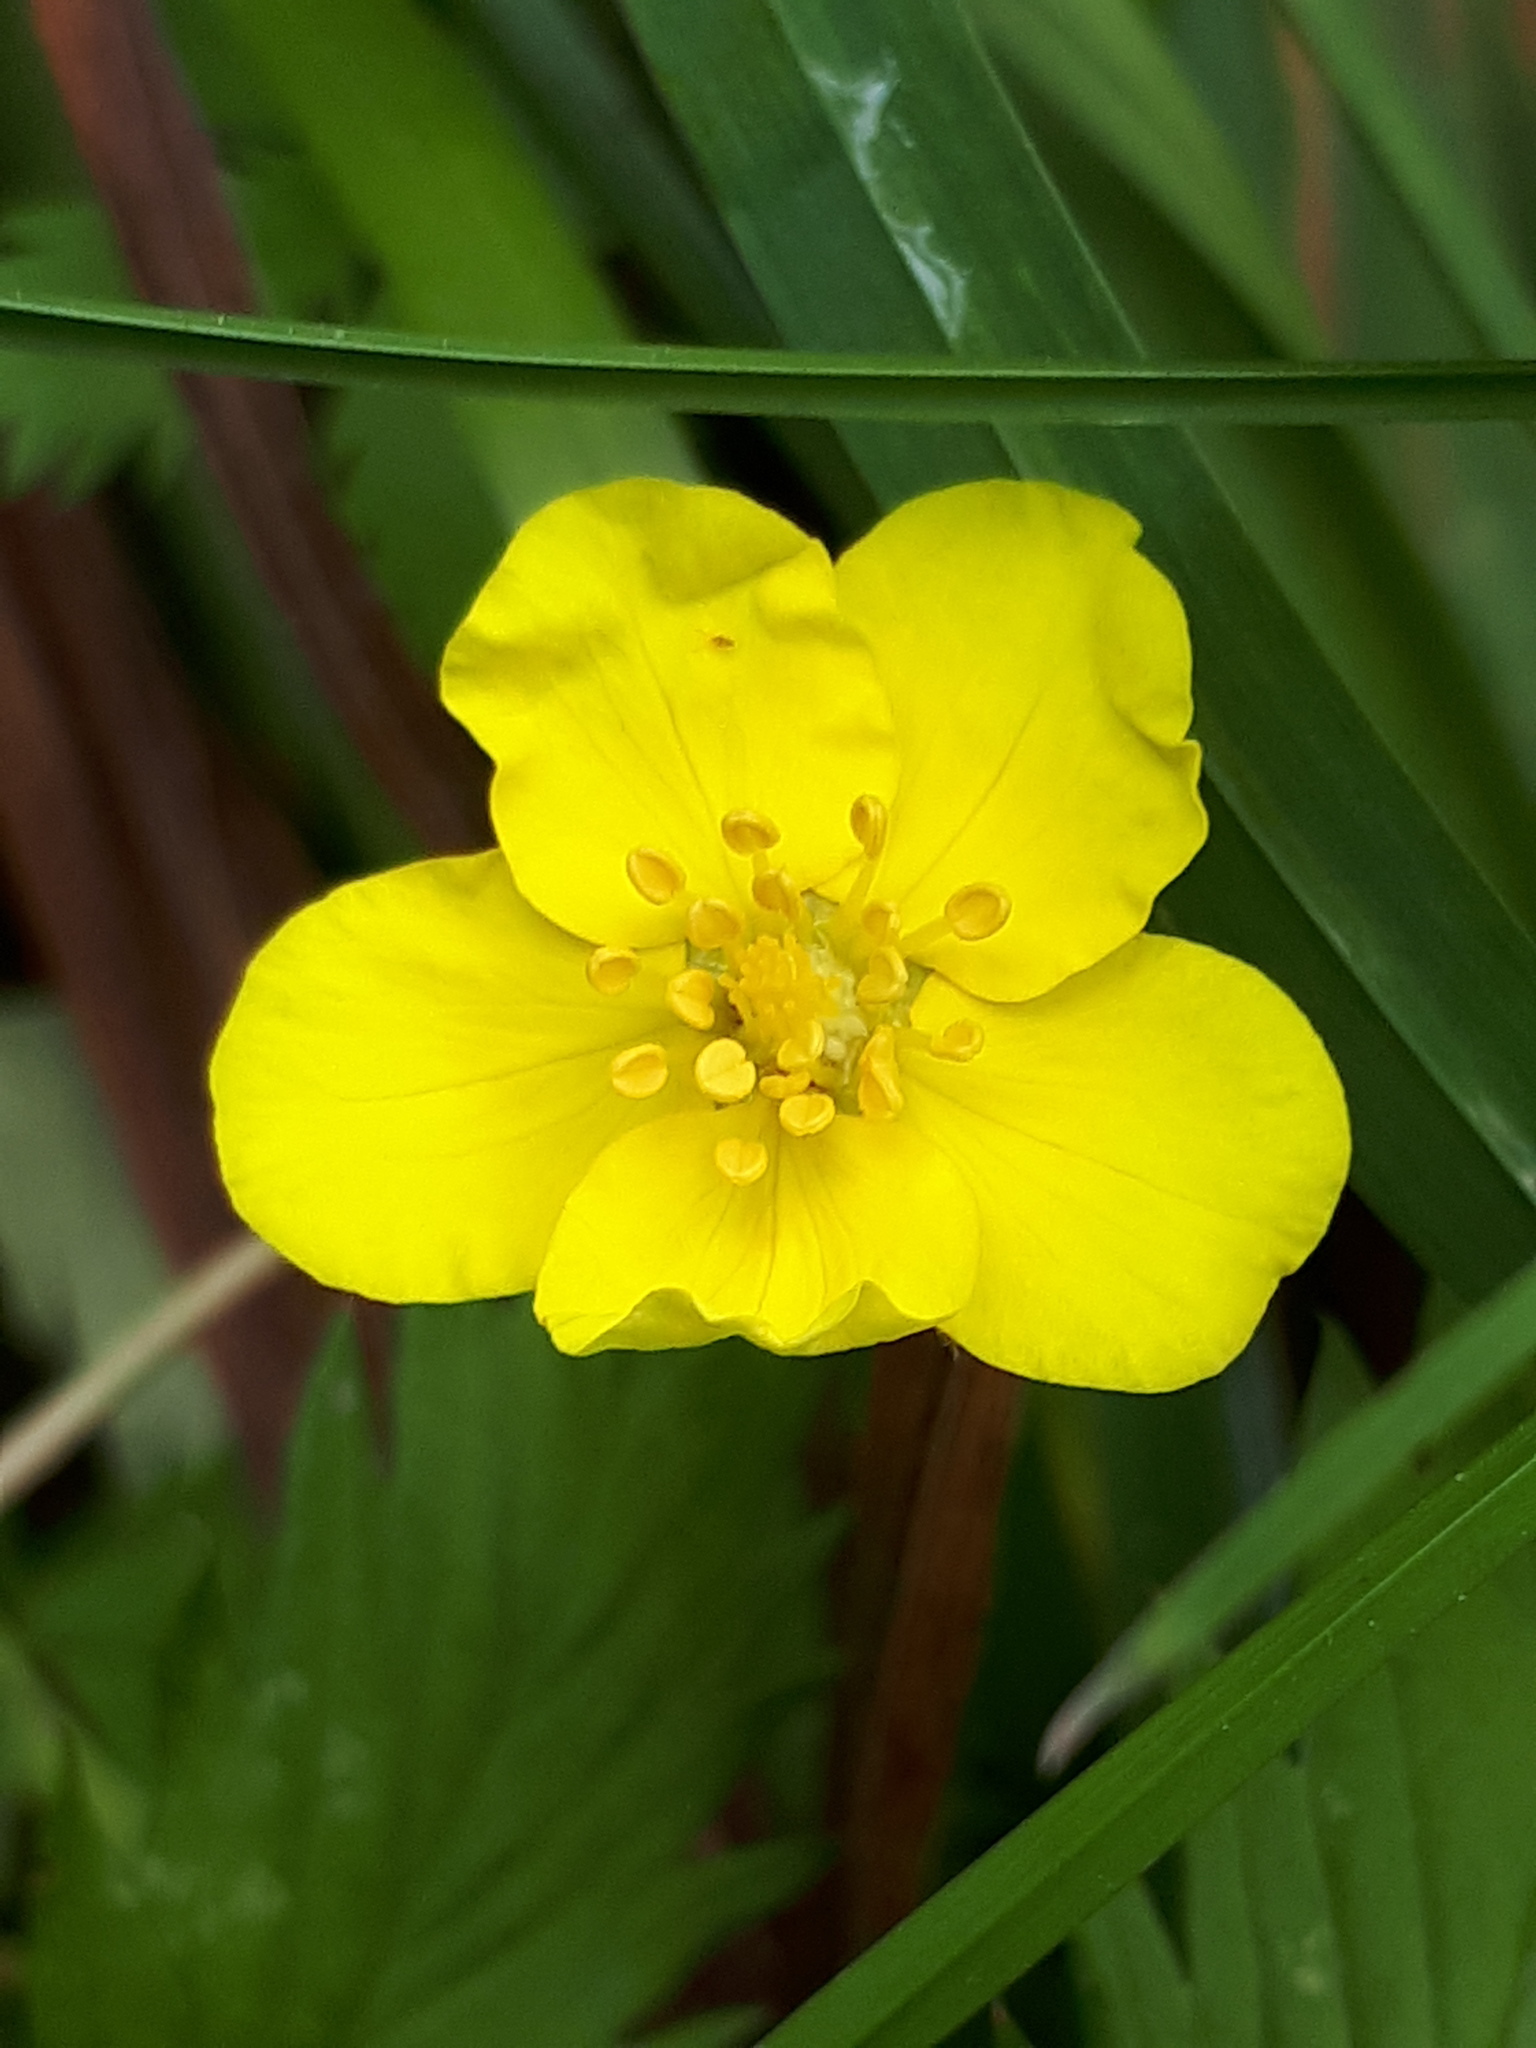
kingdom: Plantae
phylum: Tracheophyta
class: Magnoliopsida
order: Rosales
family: Rosaceae
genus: Argentina
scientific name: Argentina anserina
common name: Common silverweed
